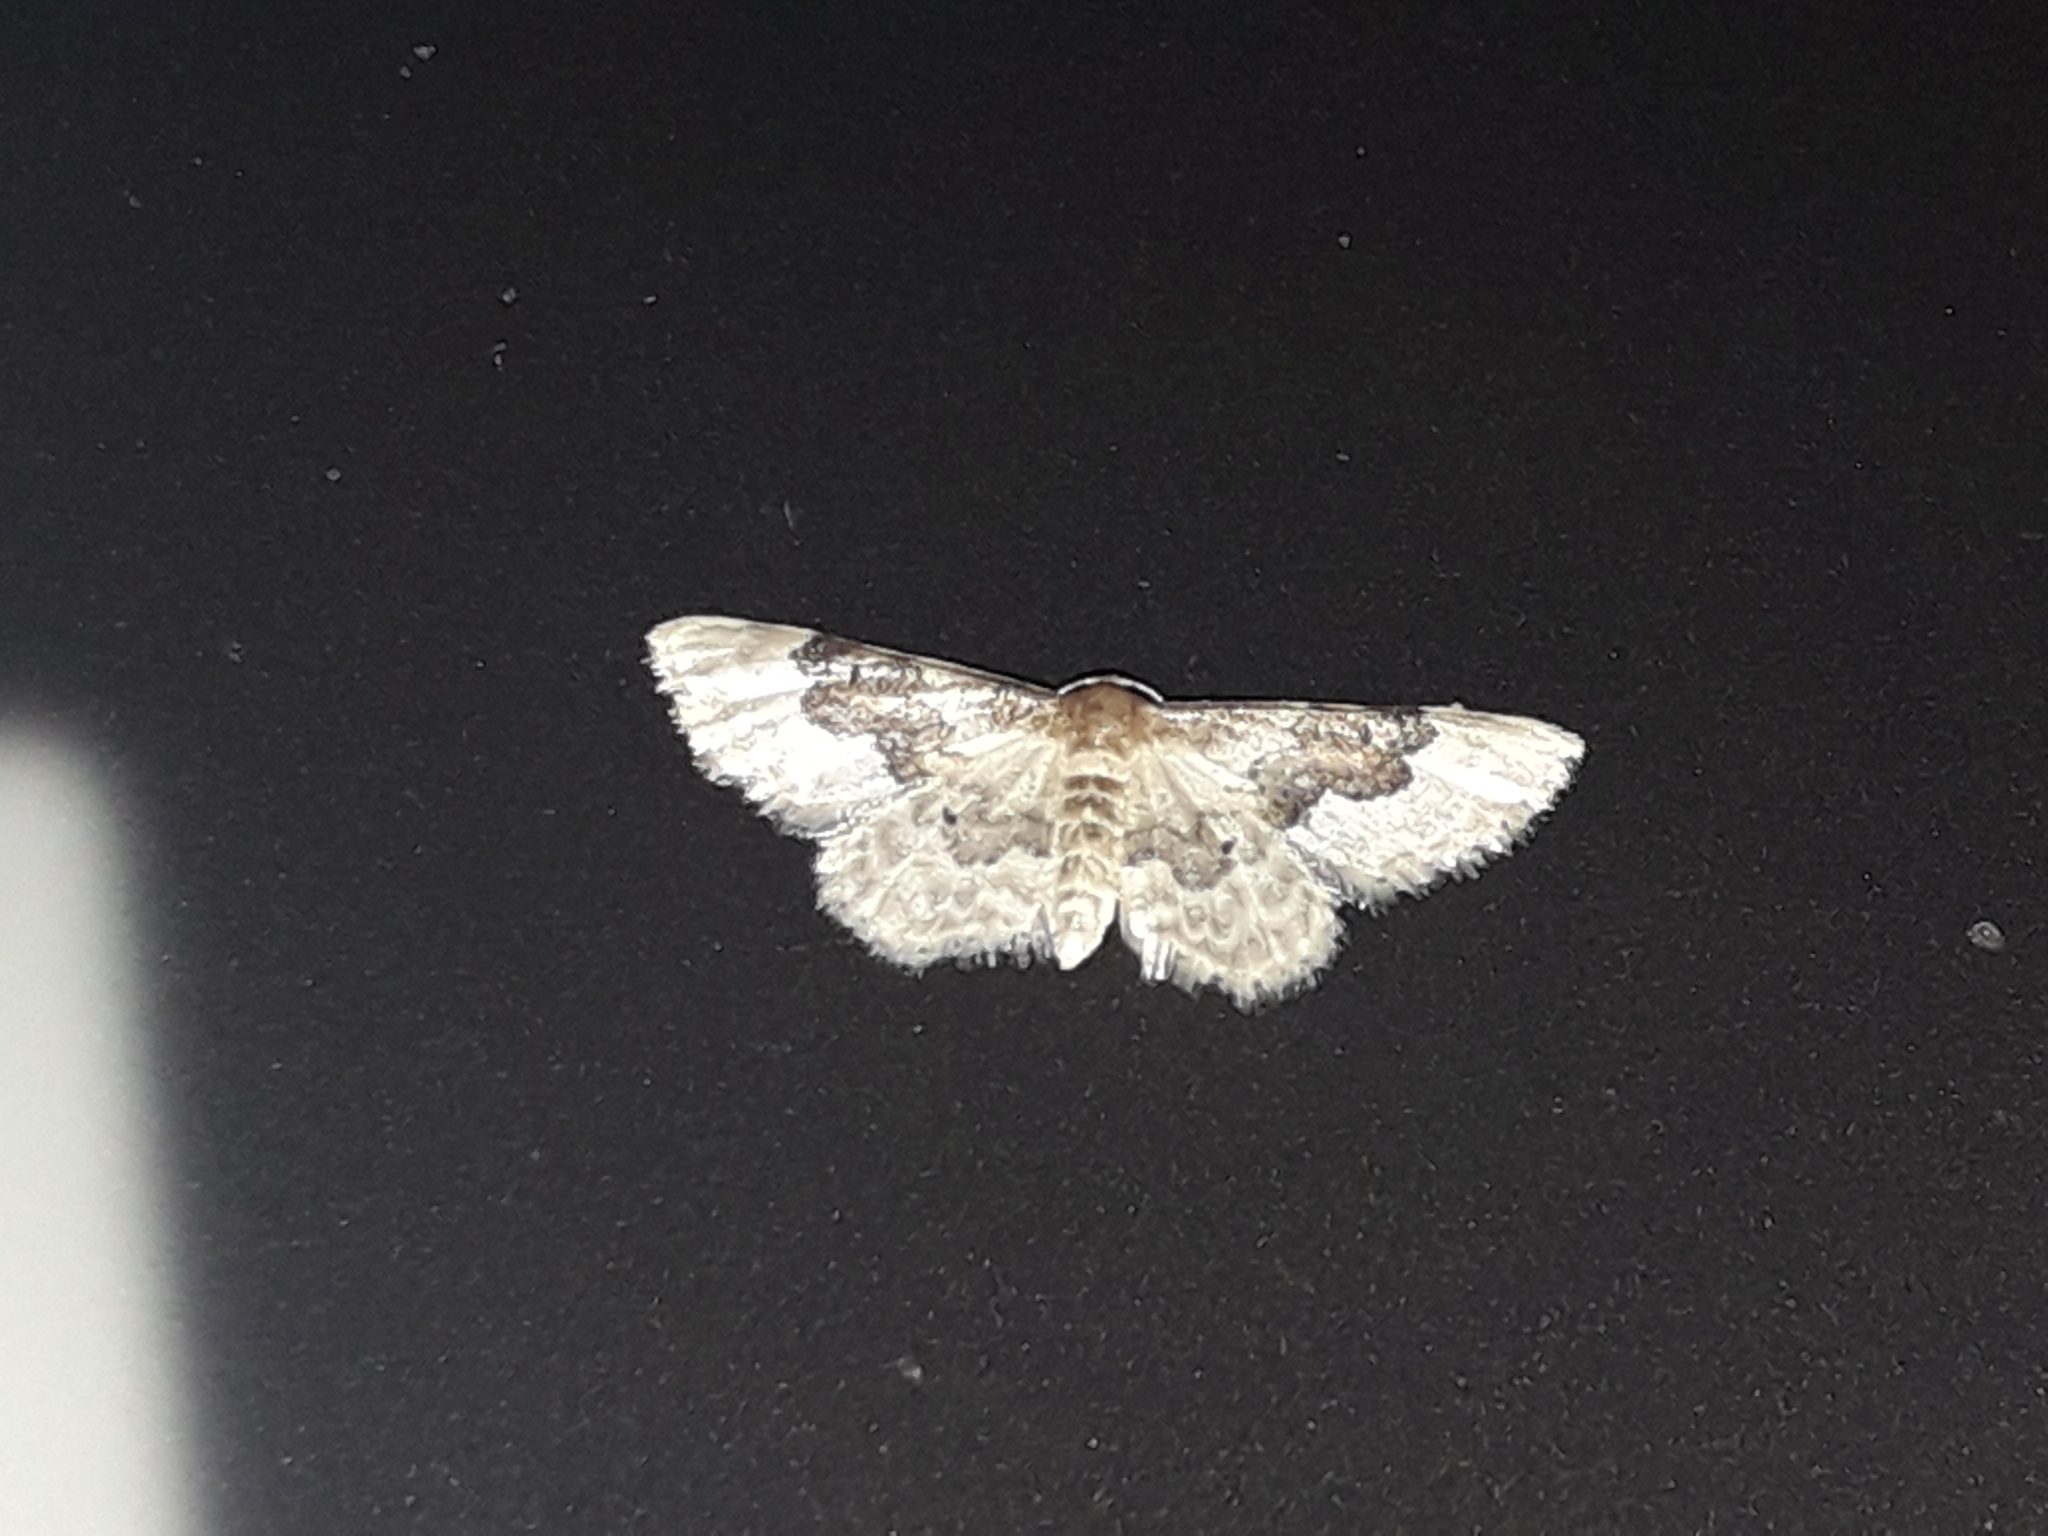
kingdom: Animalia
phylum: Arthropoda
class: Insecta
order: Lepidoptera
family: Geometridae
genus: Idaea
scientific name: Idaea rusticata
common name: Least carpet
